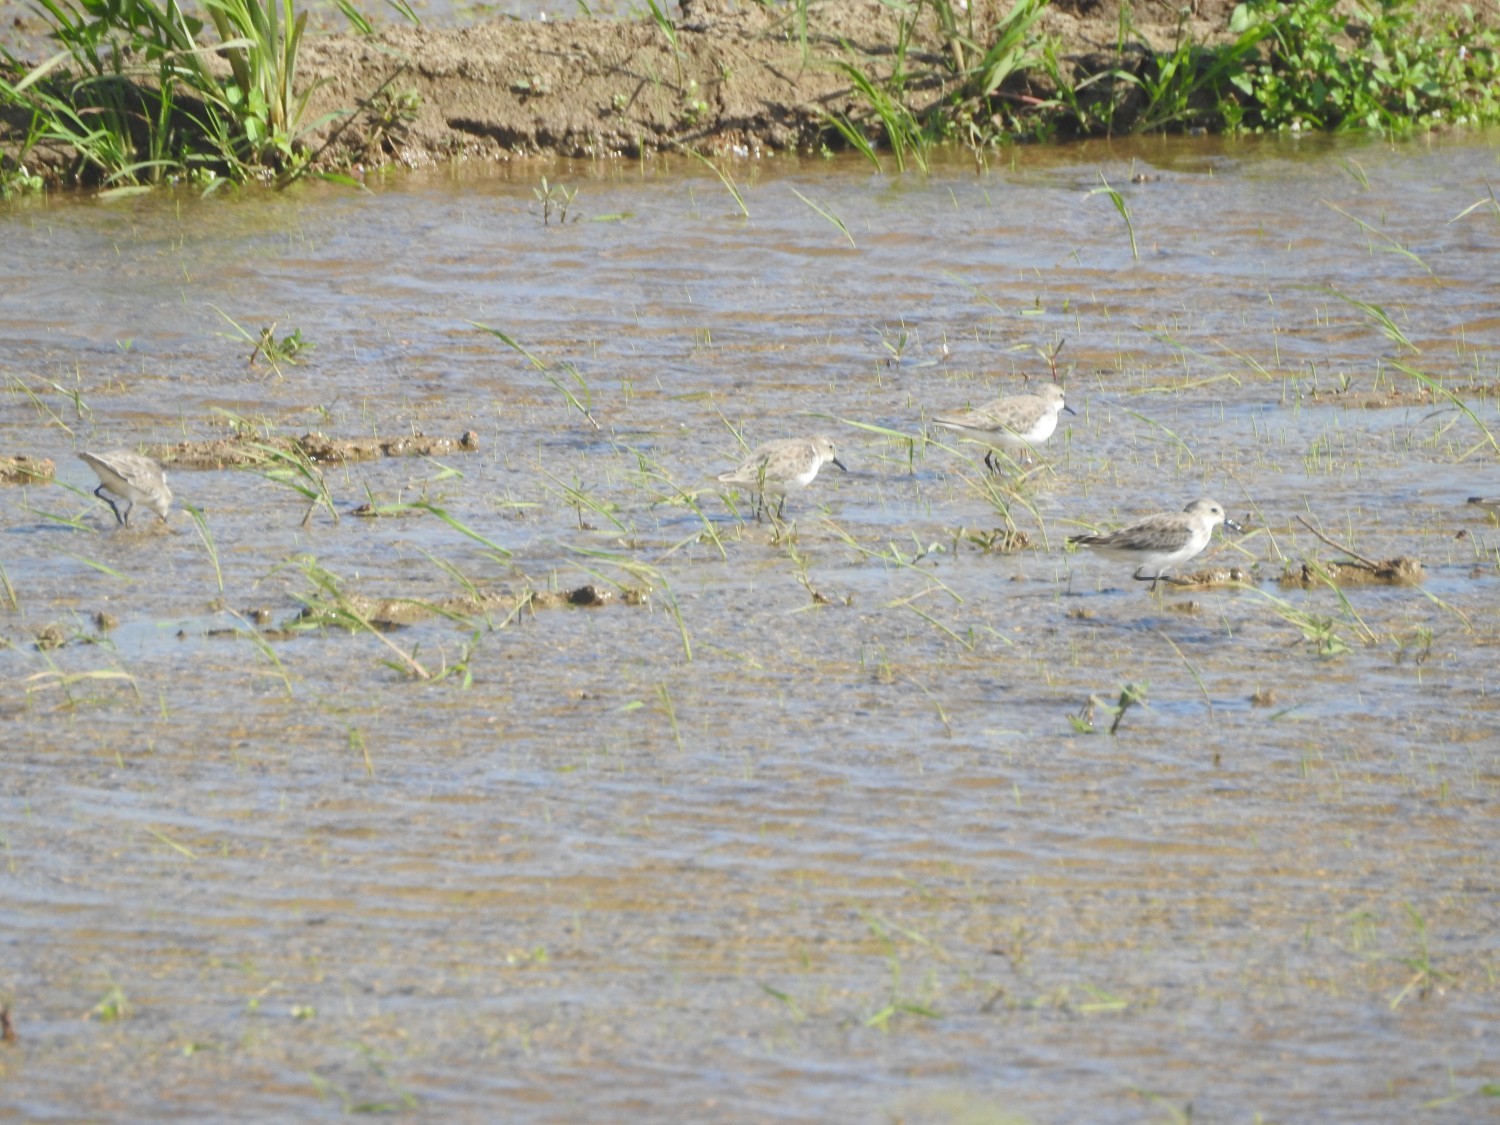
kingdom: Animalia
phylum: Chordata
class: Aves
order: Charadriiformes
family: Scolopacidae
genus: Calidris
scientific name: Calidris minuta
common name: Little stint
